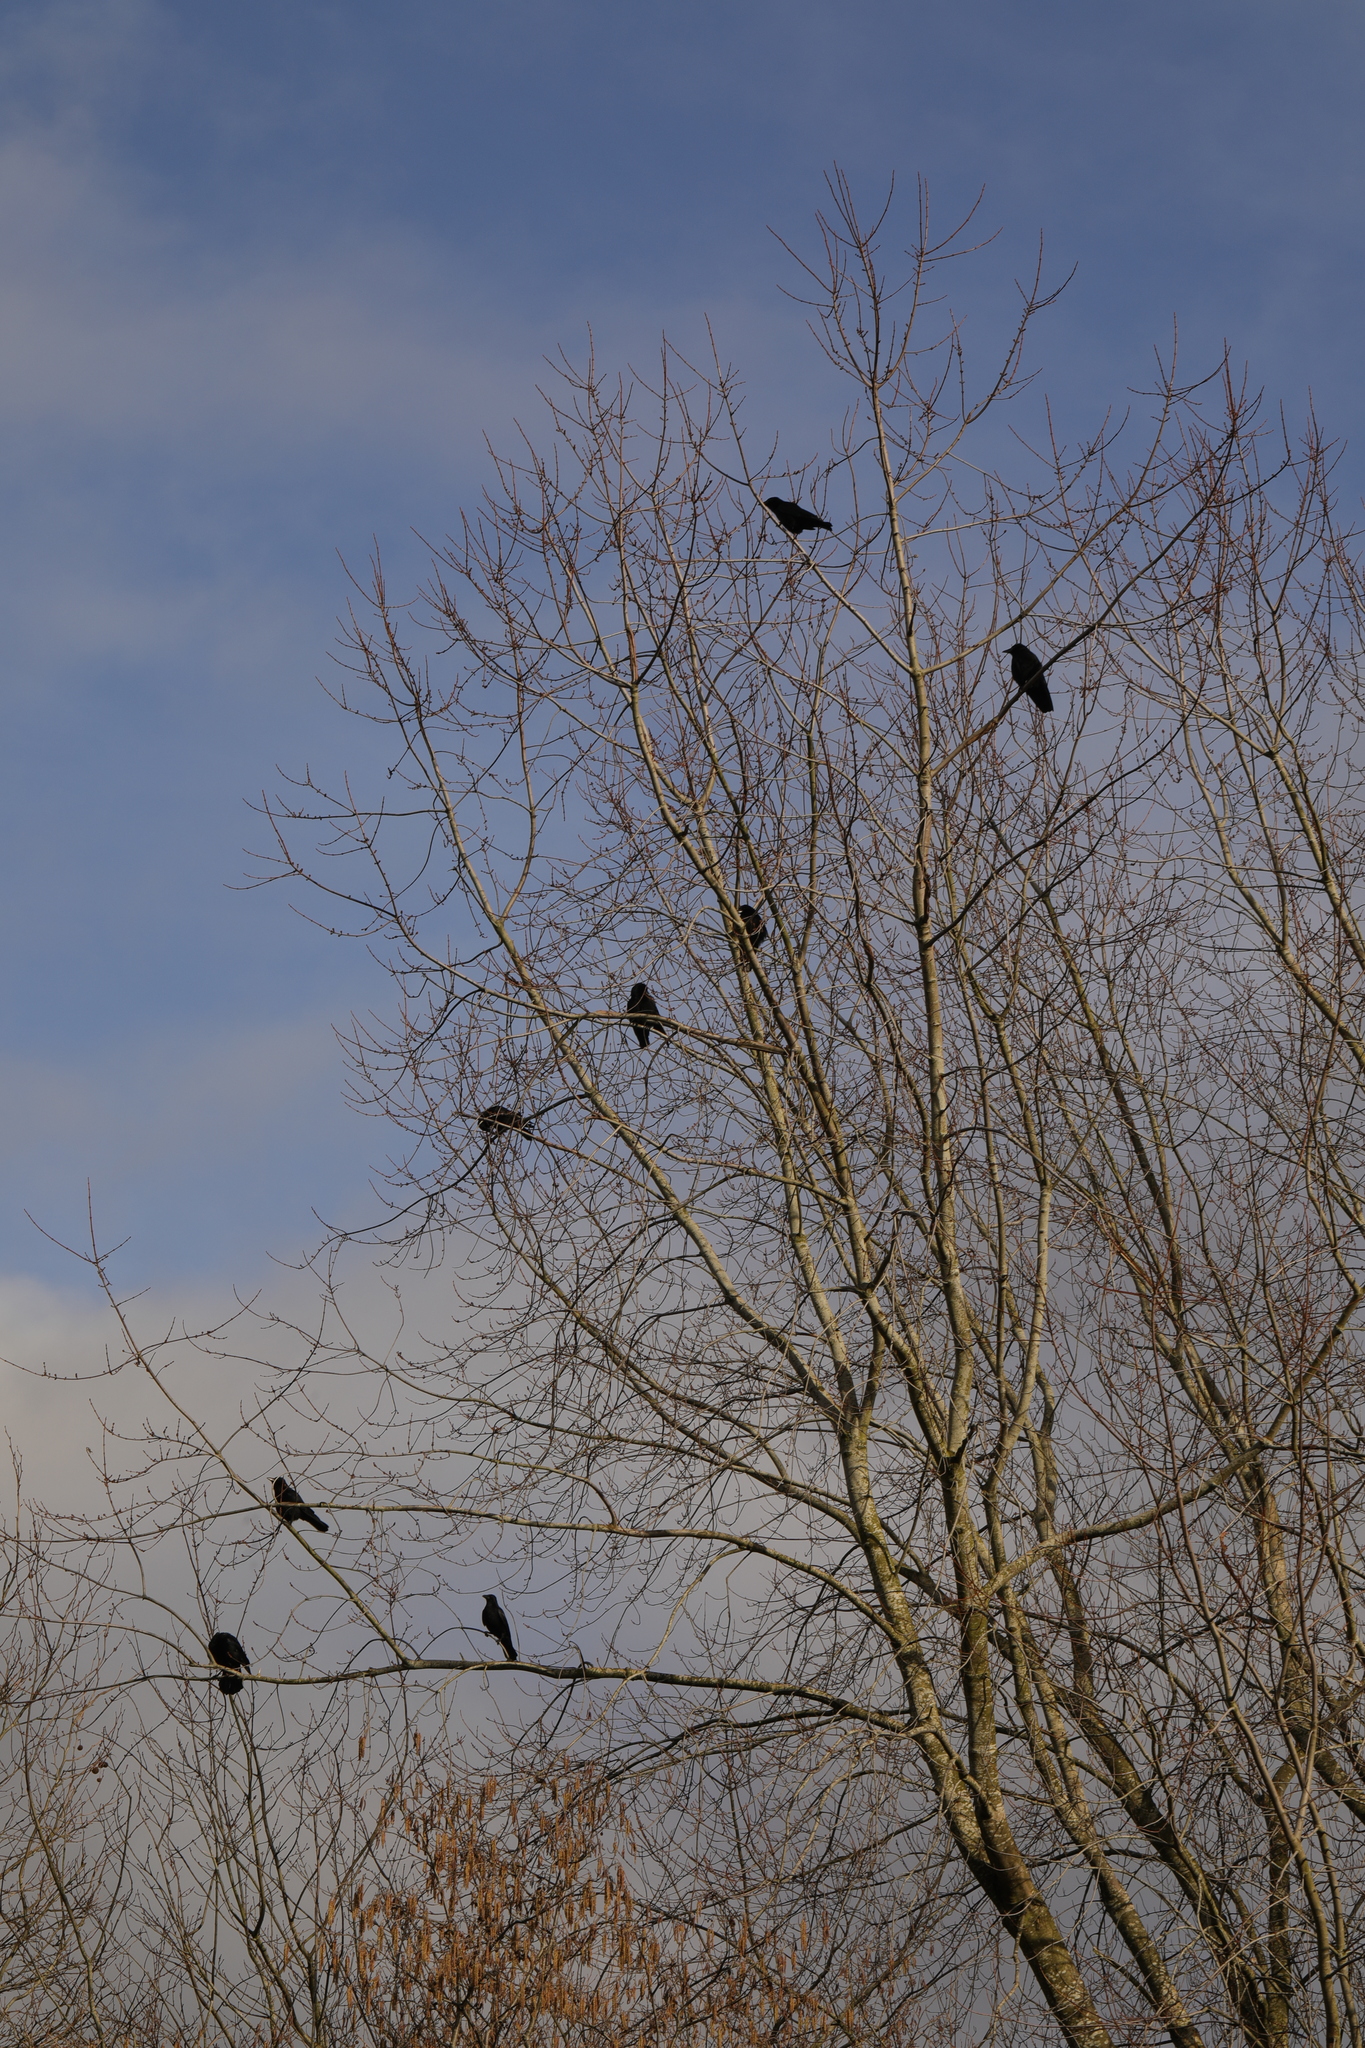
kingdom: Animalia
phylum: Chordata
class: Aves
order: Passeriformes
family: Corvidae
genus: Corvus
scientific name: Corvus corone
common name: Carrion crow
